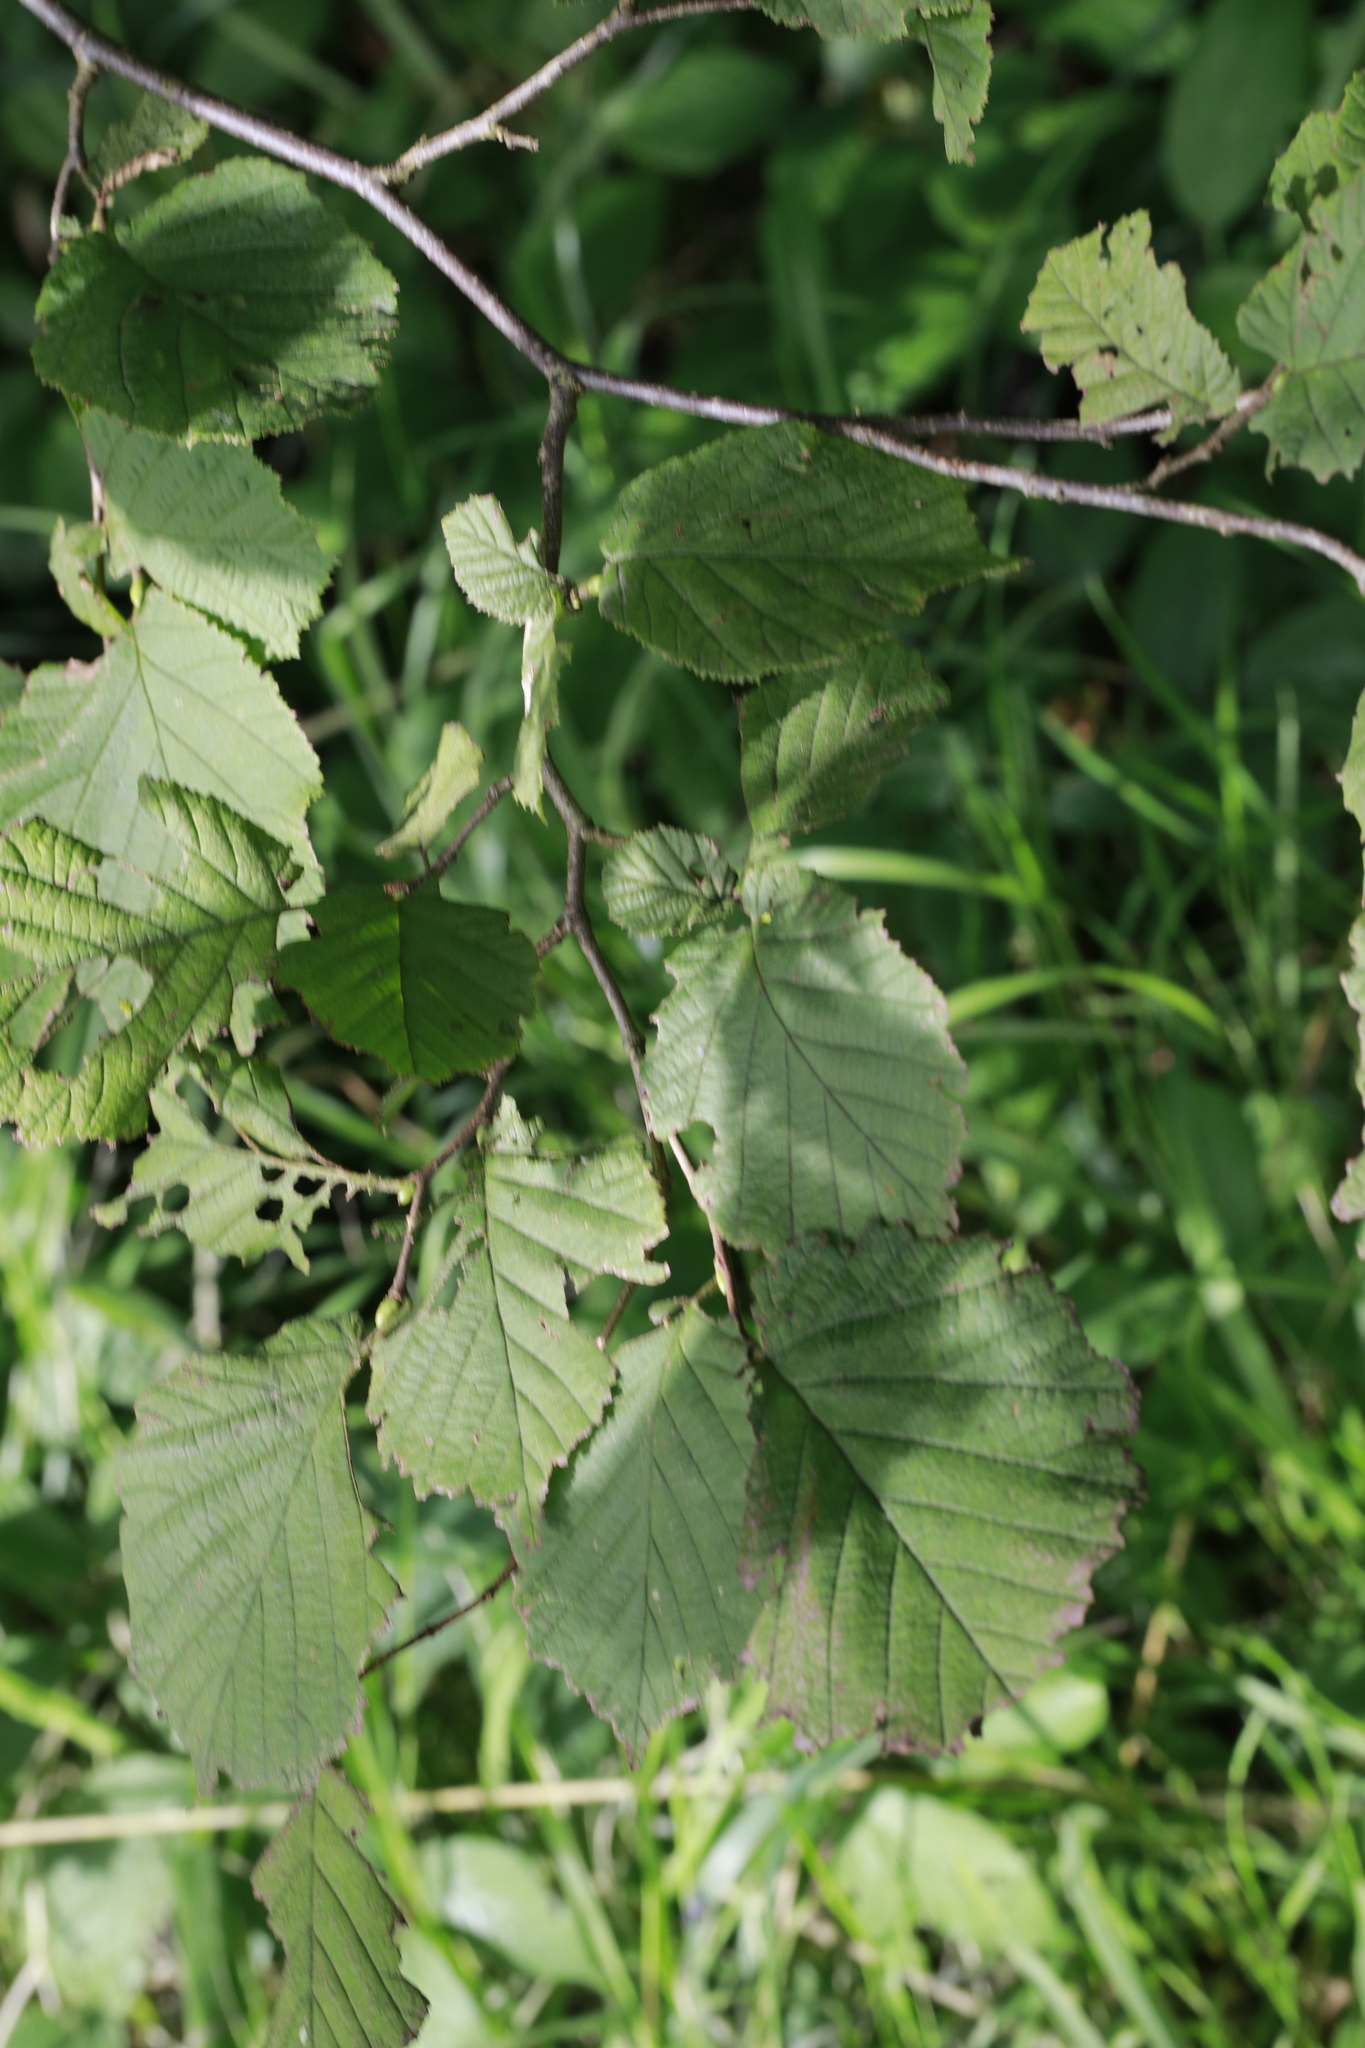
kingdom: Plantae
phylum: Tracheophyta
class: Magnoliopsida
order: Fagales
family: Betulaceae
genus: Corylus
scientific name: Corylus avellana
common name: European hazel
